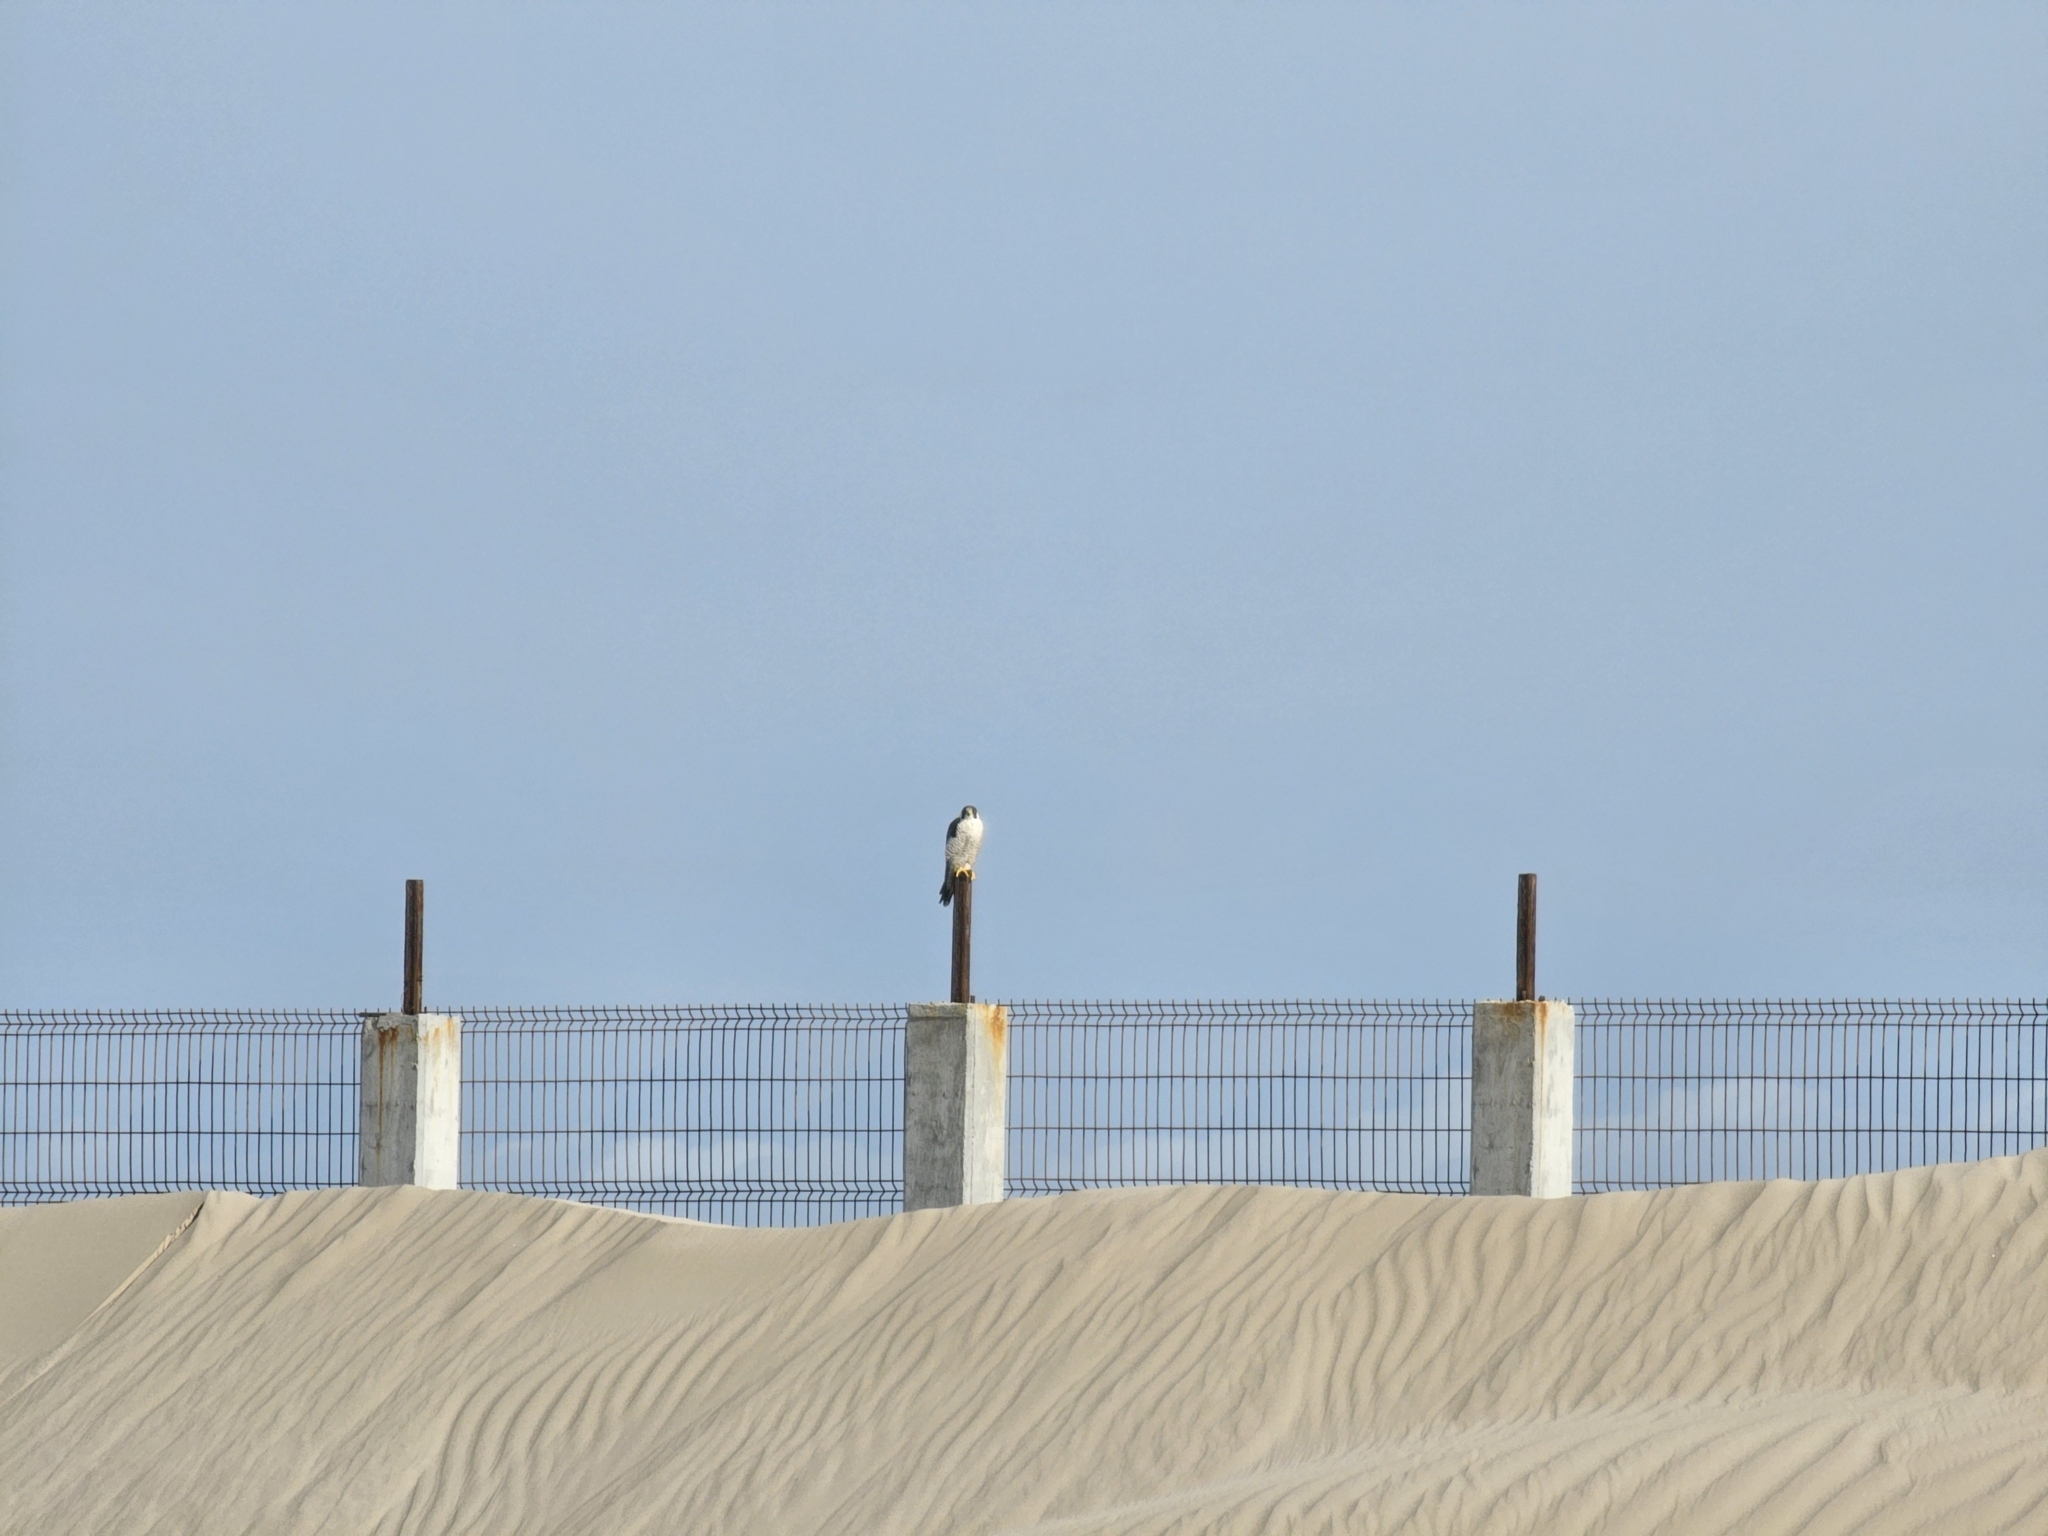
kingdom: Animalia
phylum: Chordata
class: Aves
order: Falconiformes
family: Falconidae
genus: Falco
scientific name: Falco peregrinus
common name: Peregrine falcon
